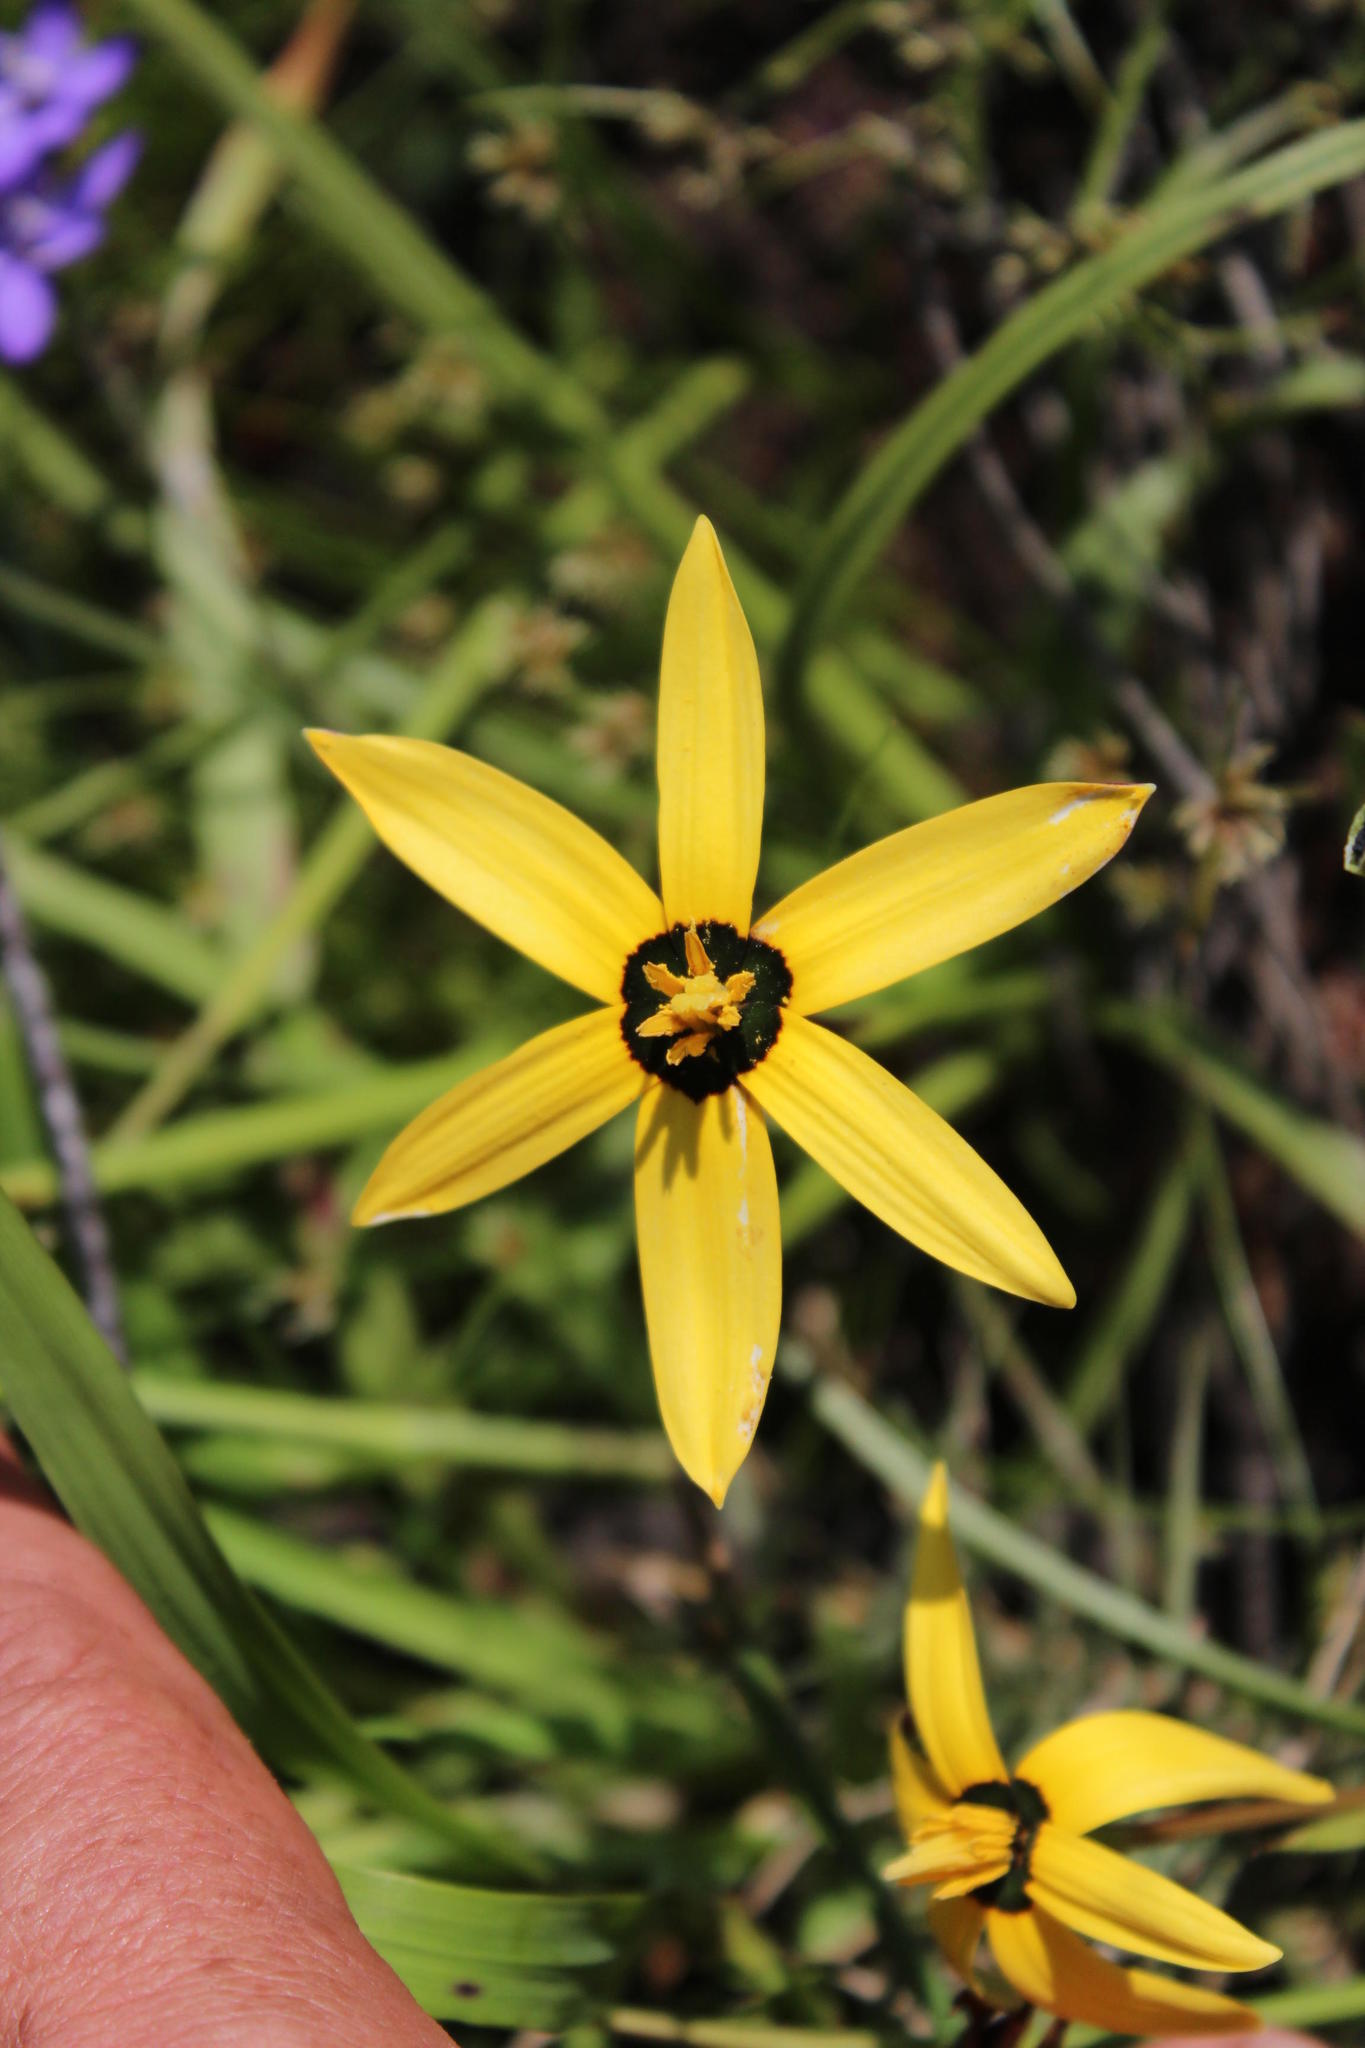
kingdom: Plantae
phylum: Tracheophyta
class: Liliopsida
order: Asparagales
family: Hypoxidaceae
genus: Pauridia
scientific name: Pauridia capensis
